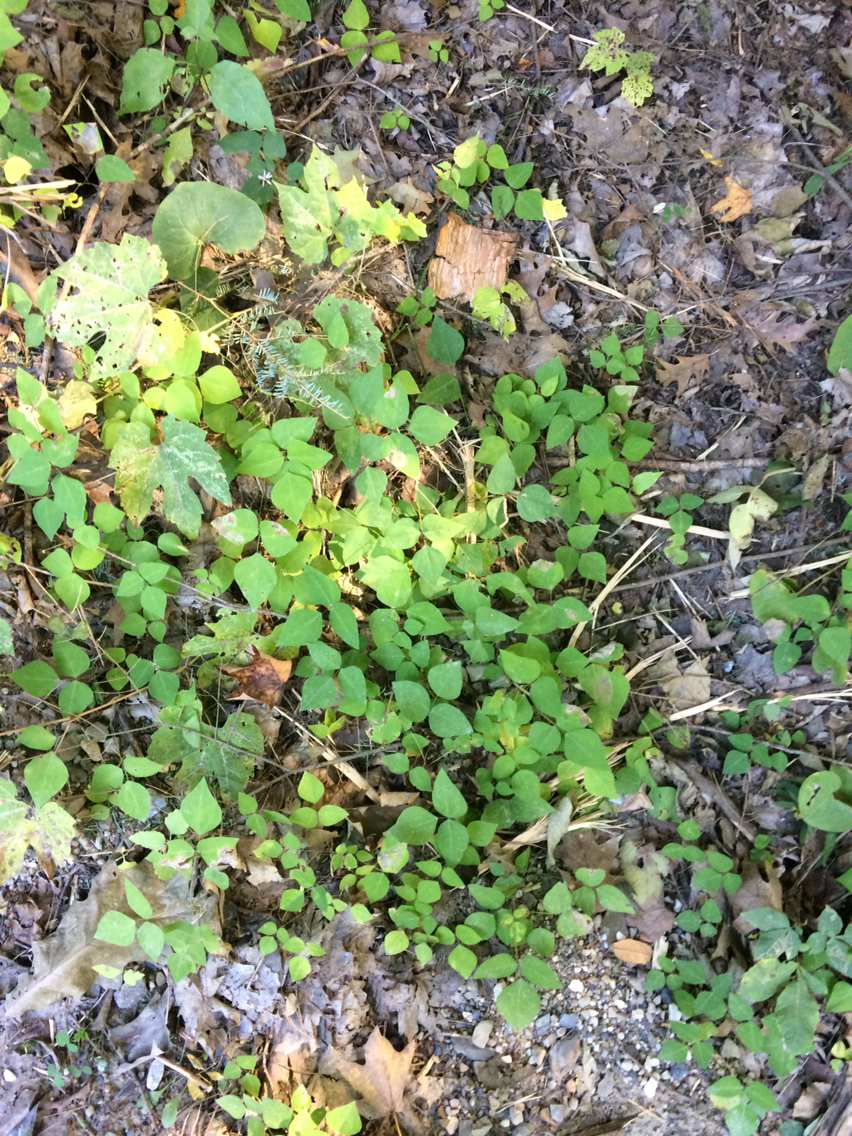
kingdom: Plantae
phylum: Tracheophyta
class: Magnoliopsida
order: Fabales
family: Fabaceae
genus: Amphicarpaea
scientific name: Amphicarpaea bracteata
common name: American hog peanut
